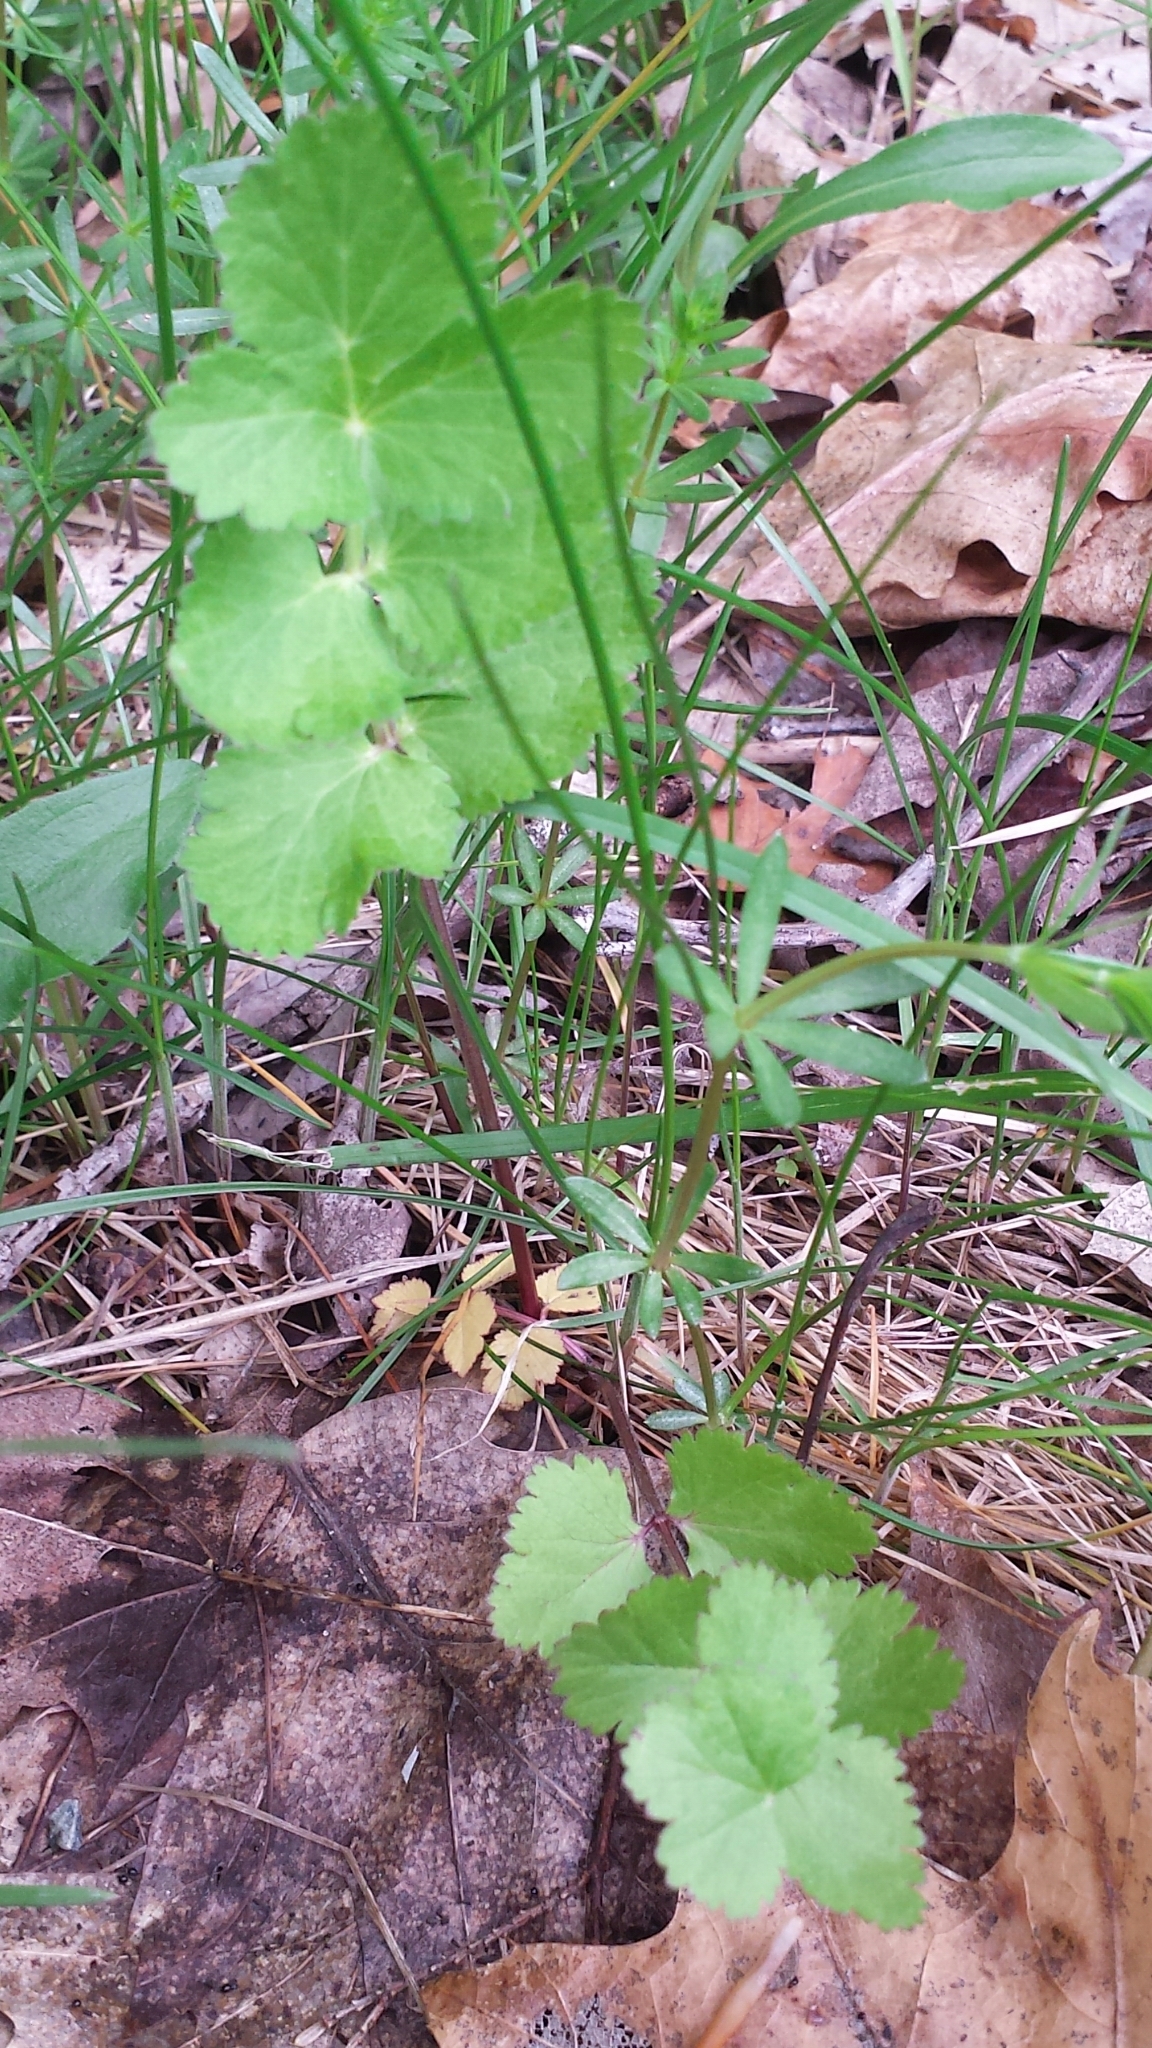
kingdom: Plantae
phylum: Tracheophyta
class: Magnoliopsida
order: Apiales
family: Apiaceae
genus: Pastinaca
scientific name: Pastinaca sativa
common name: Wild parsnip
